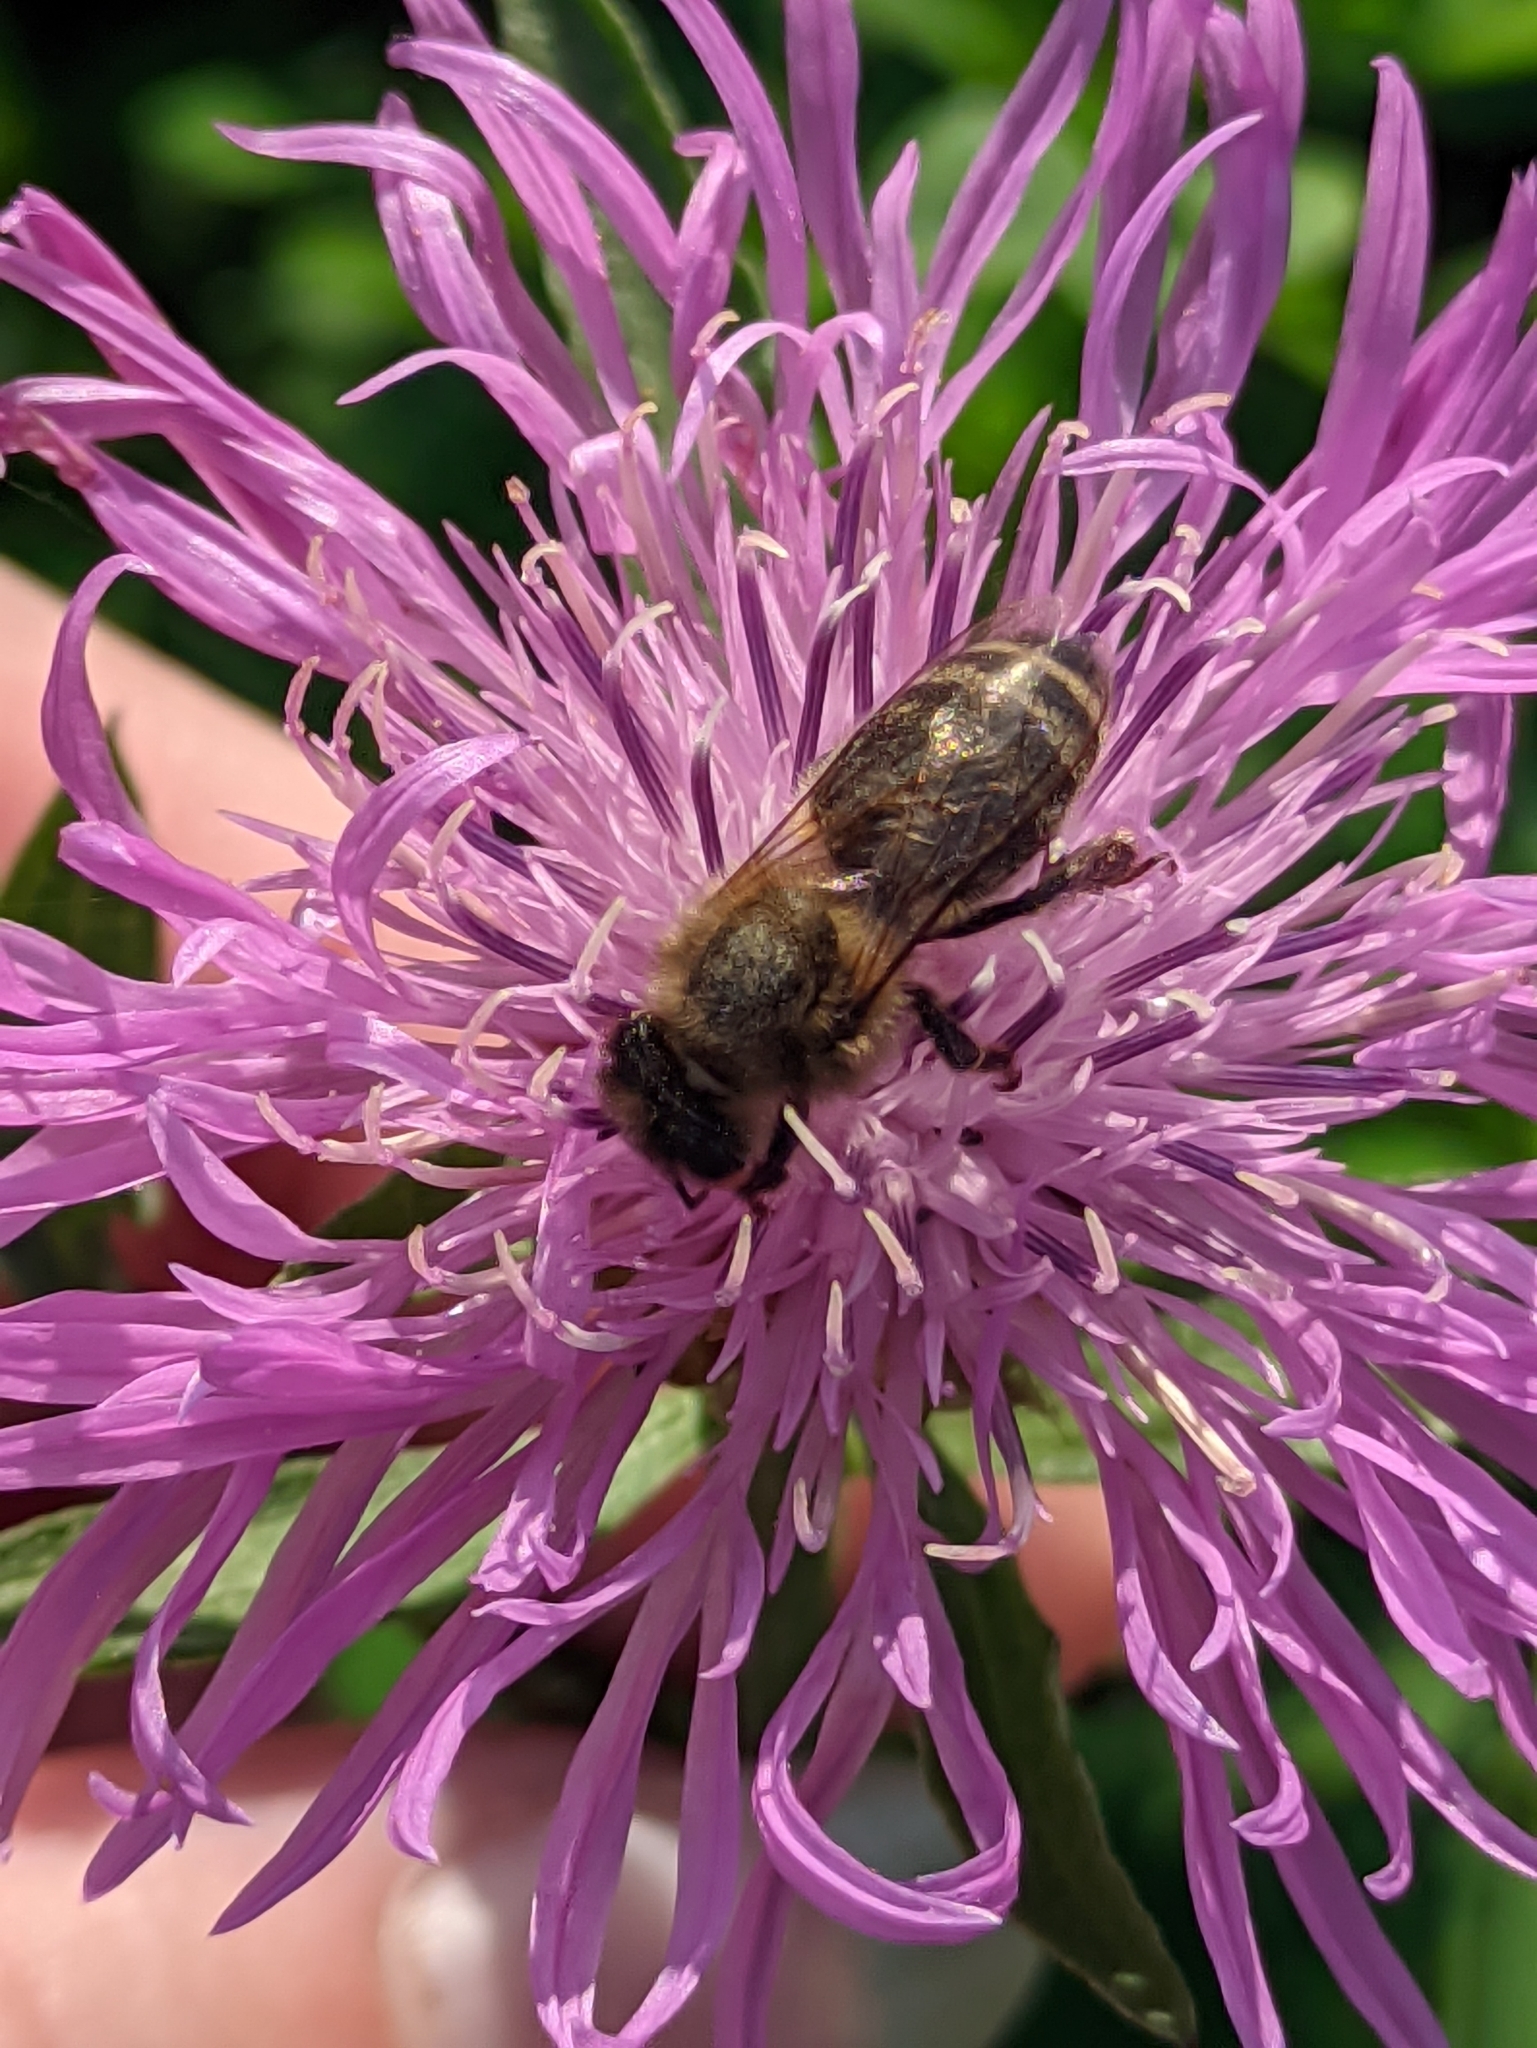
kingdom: Animalia
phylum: Arthropoda
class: Insecta
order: Hymenoptera
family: Apidae
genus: Apis
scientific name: Apis mellifera
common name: Honey bee
